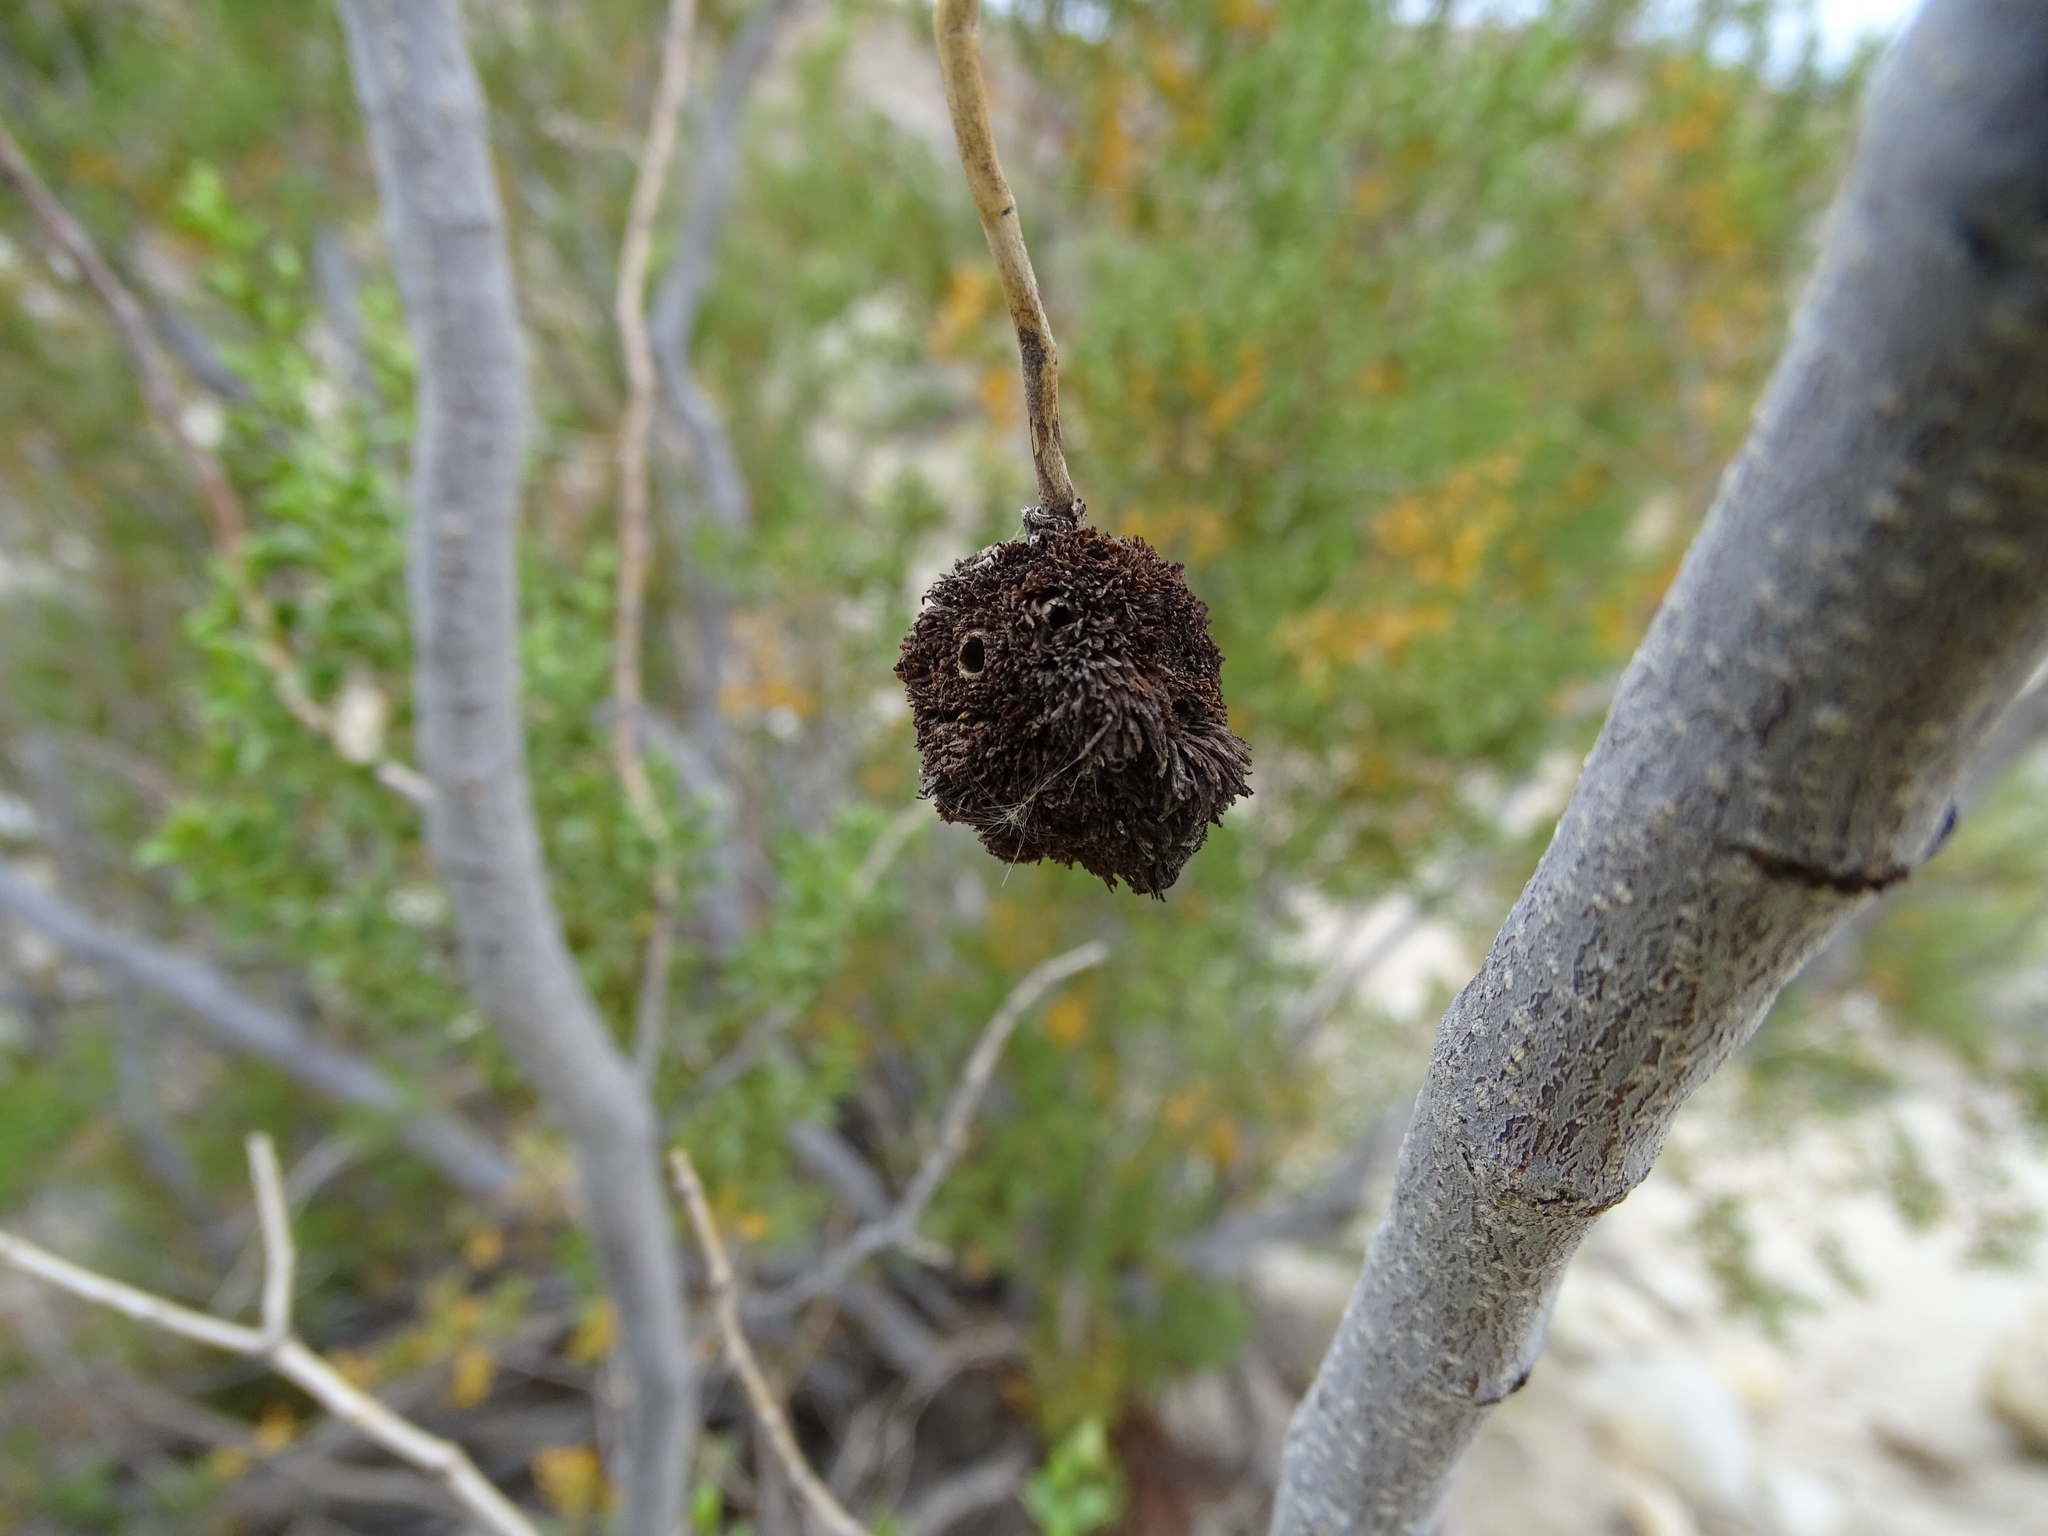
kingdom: Animalia
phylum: Arthropoda
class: Insecta
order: Diptera
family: Cecidomyiidae
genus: Asphondylia
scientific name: Asphondylia auripila
